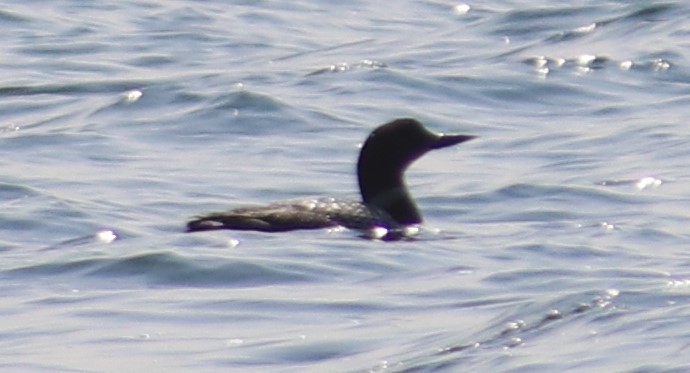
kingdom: Animalia
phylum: Chordata
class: Aves
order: Gaviiformes
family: Gaviidae
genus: Gavia
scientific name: Gavia immer
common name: Common loon
